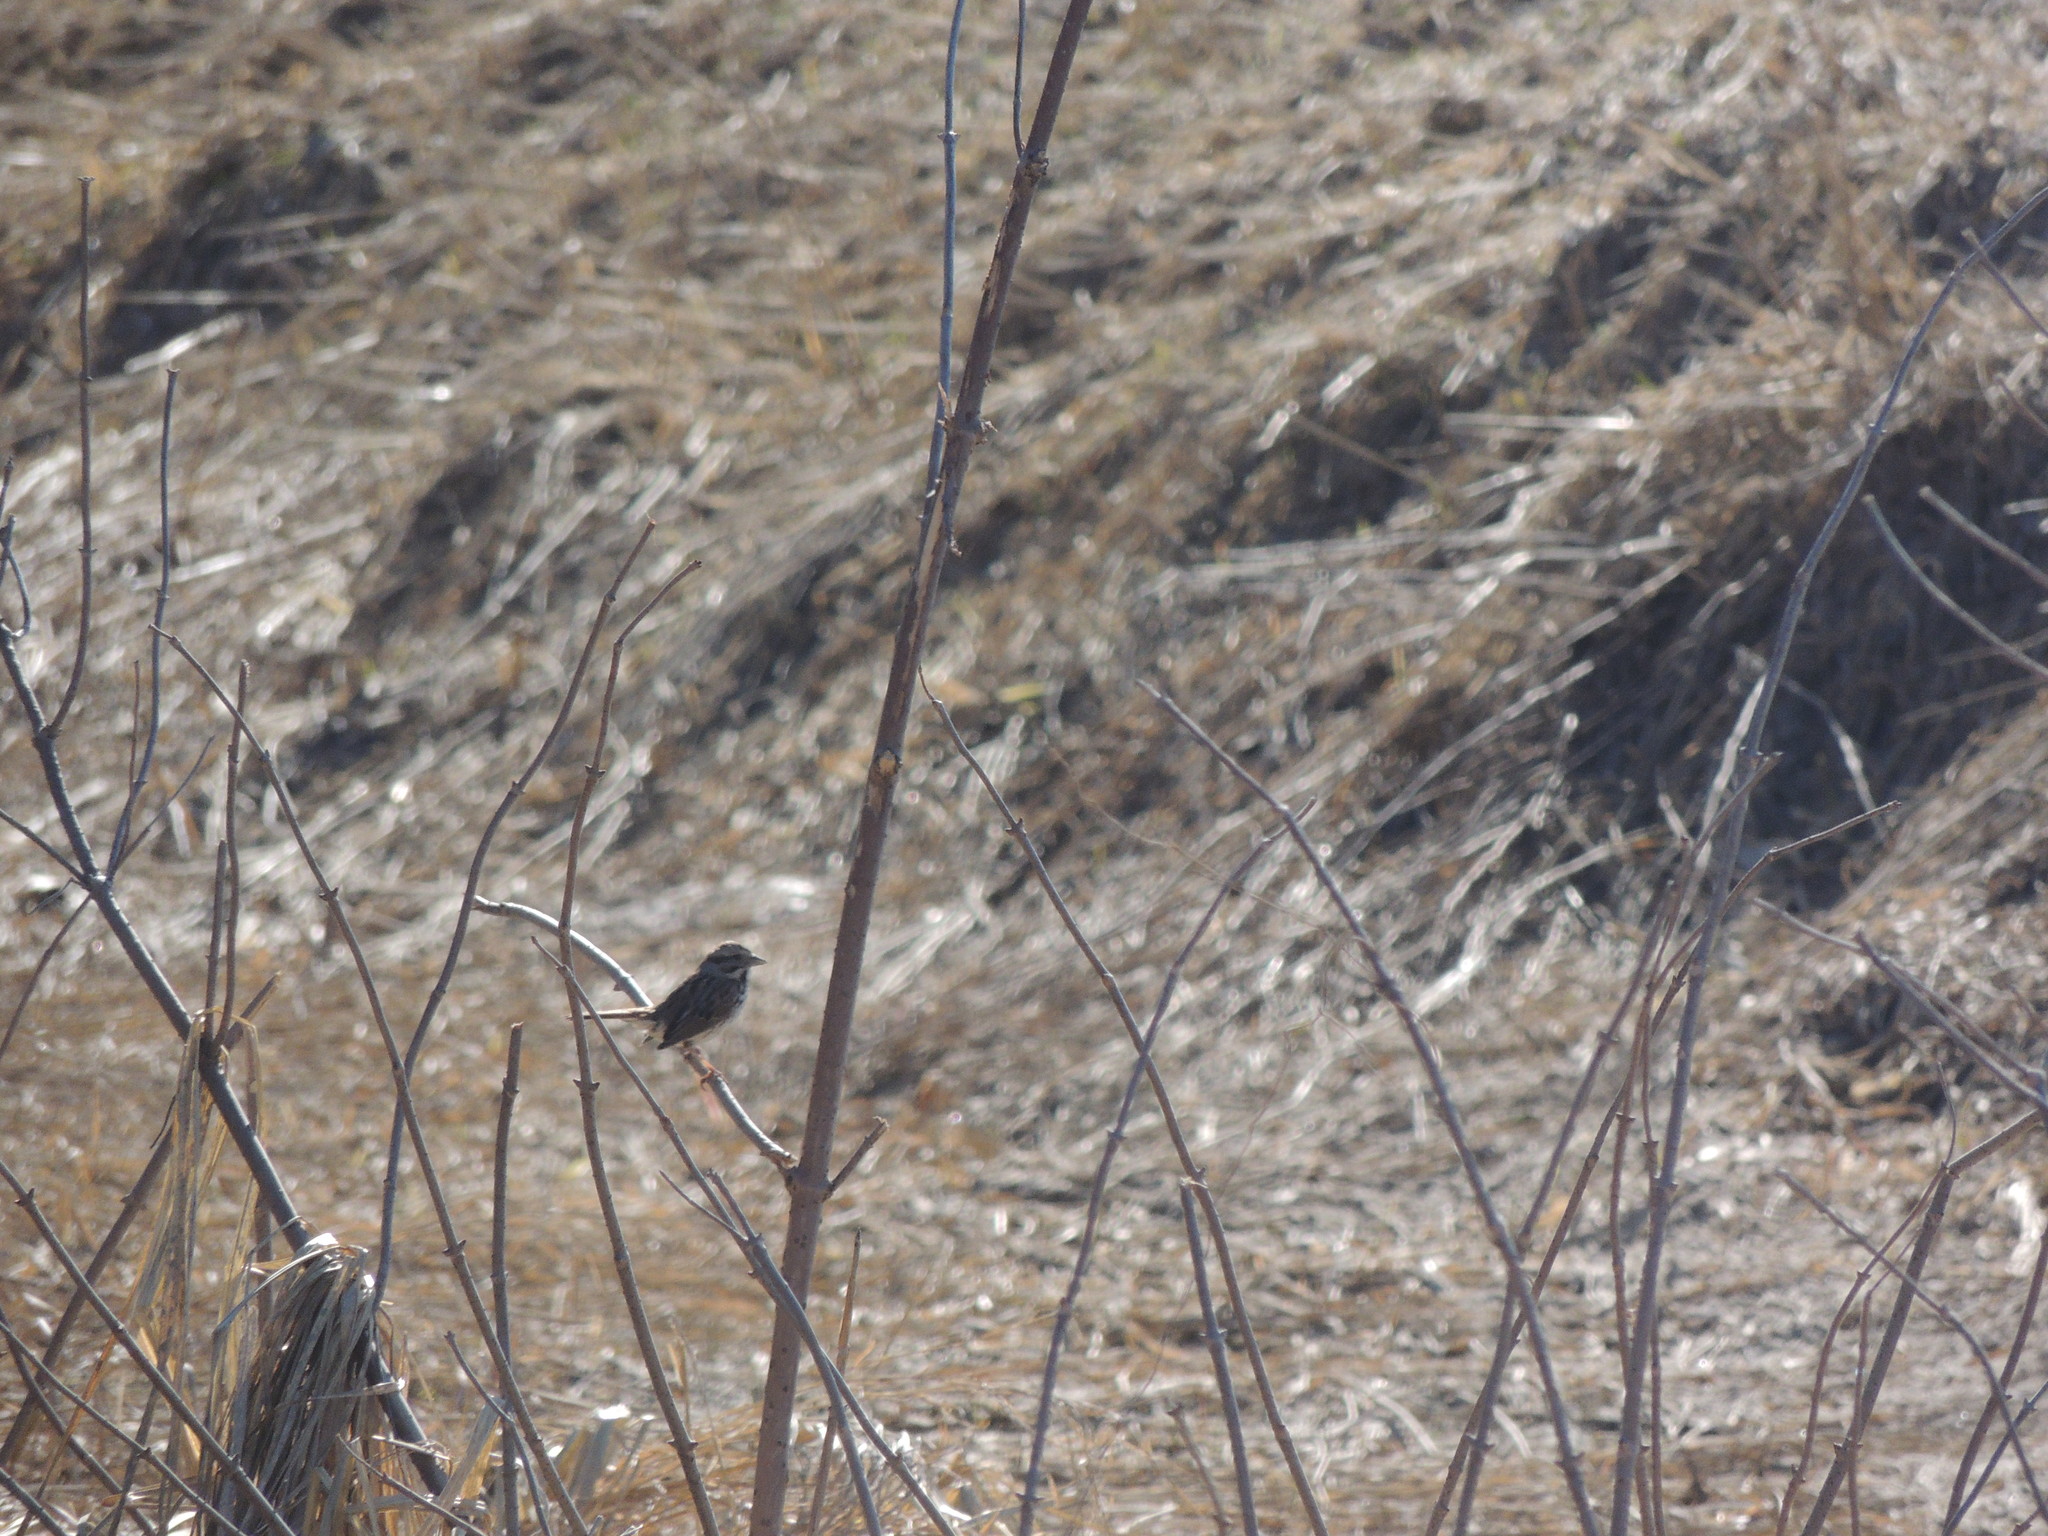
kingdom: Animalia
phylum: Chordata
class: Aves
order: Passeriformes
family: Passerellidae
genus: Melospiza
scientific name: Melospiza melodia
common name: Song sparrow
